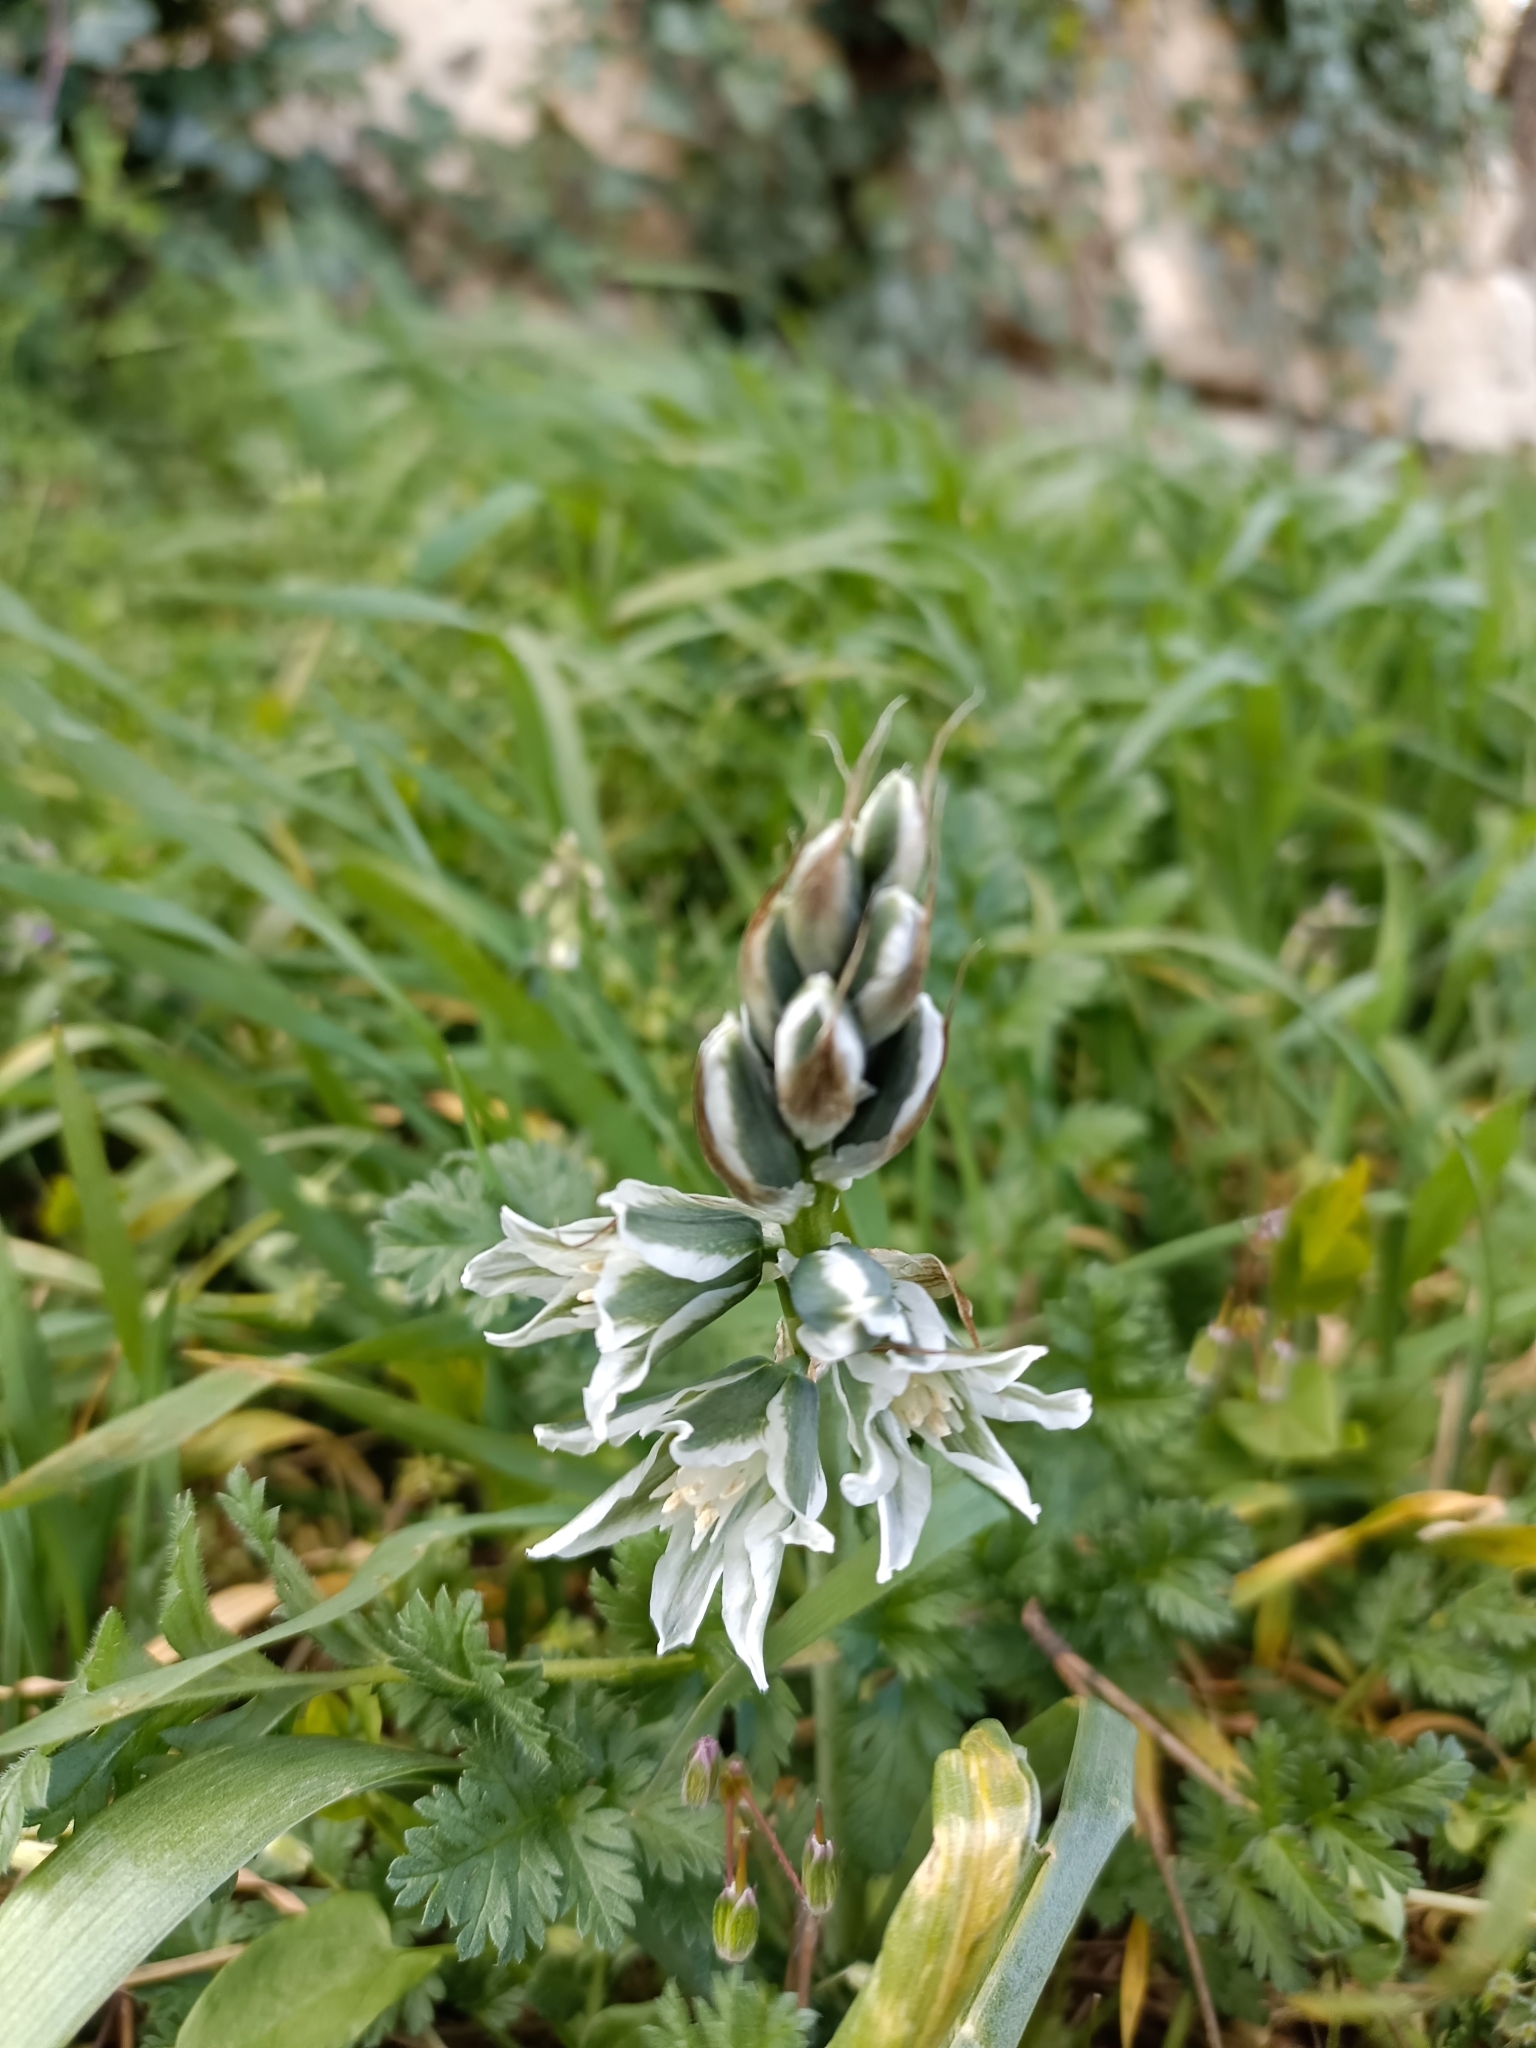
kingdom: Plantae
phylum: Tracheophyta
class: Liliopsida
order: Asparagales
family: Asparagaceae
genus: Ornithogalum
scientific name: Ornithogalum boucheanum
